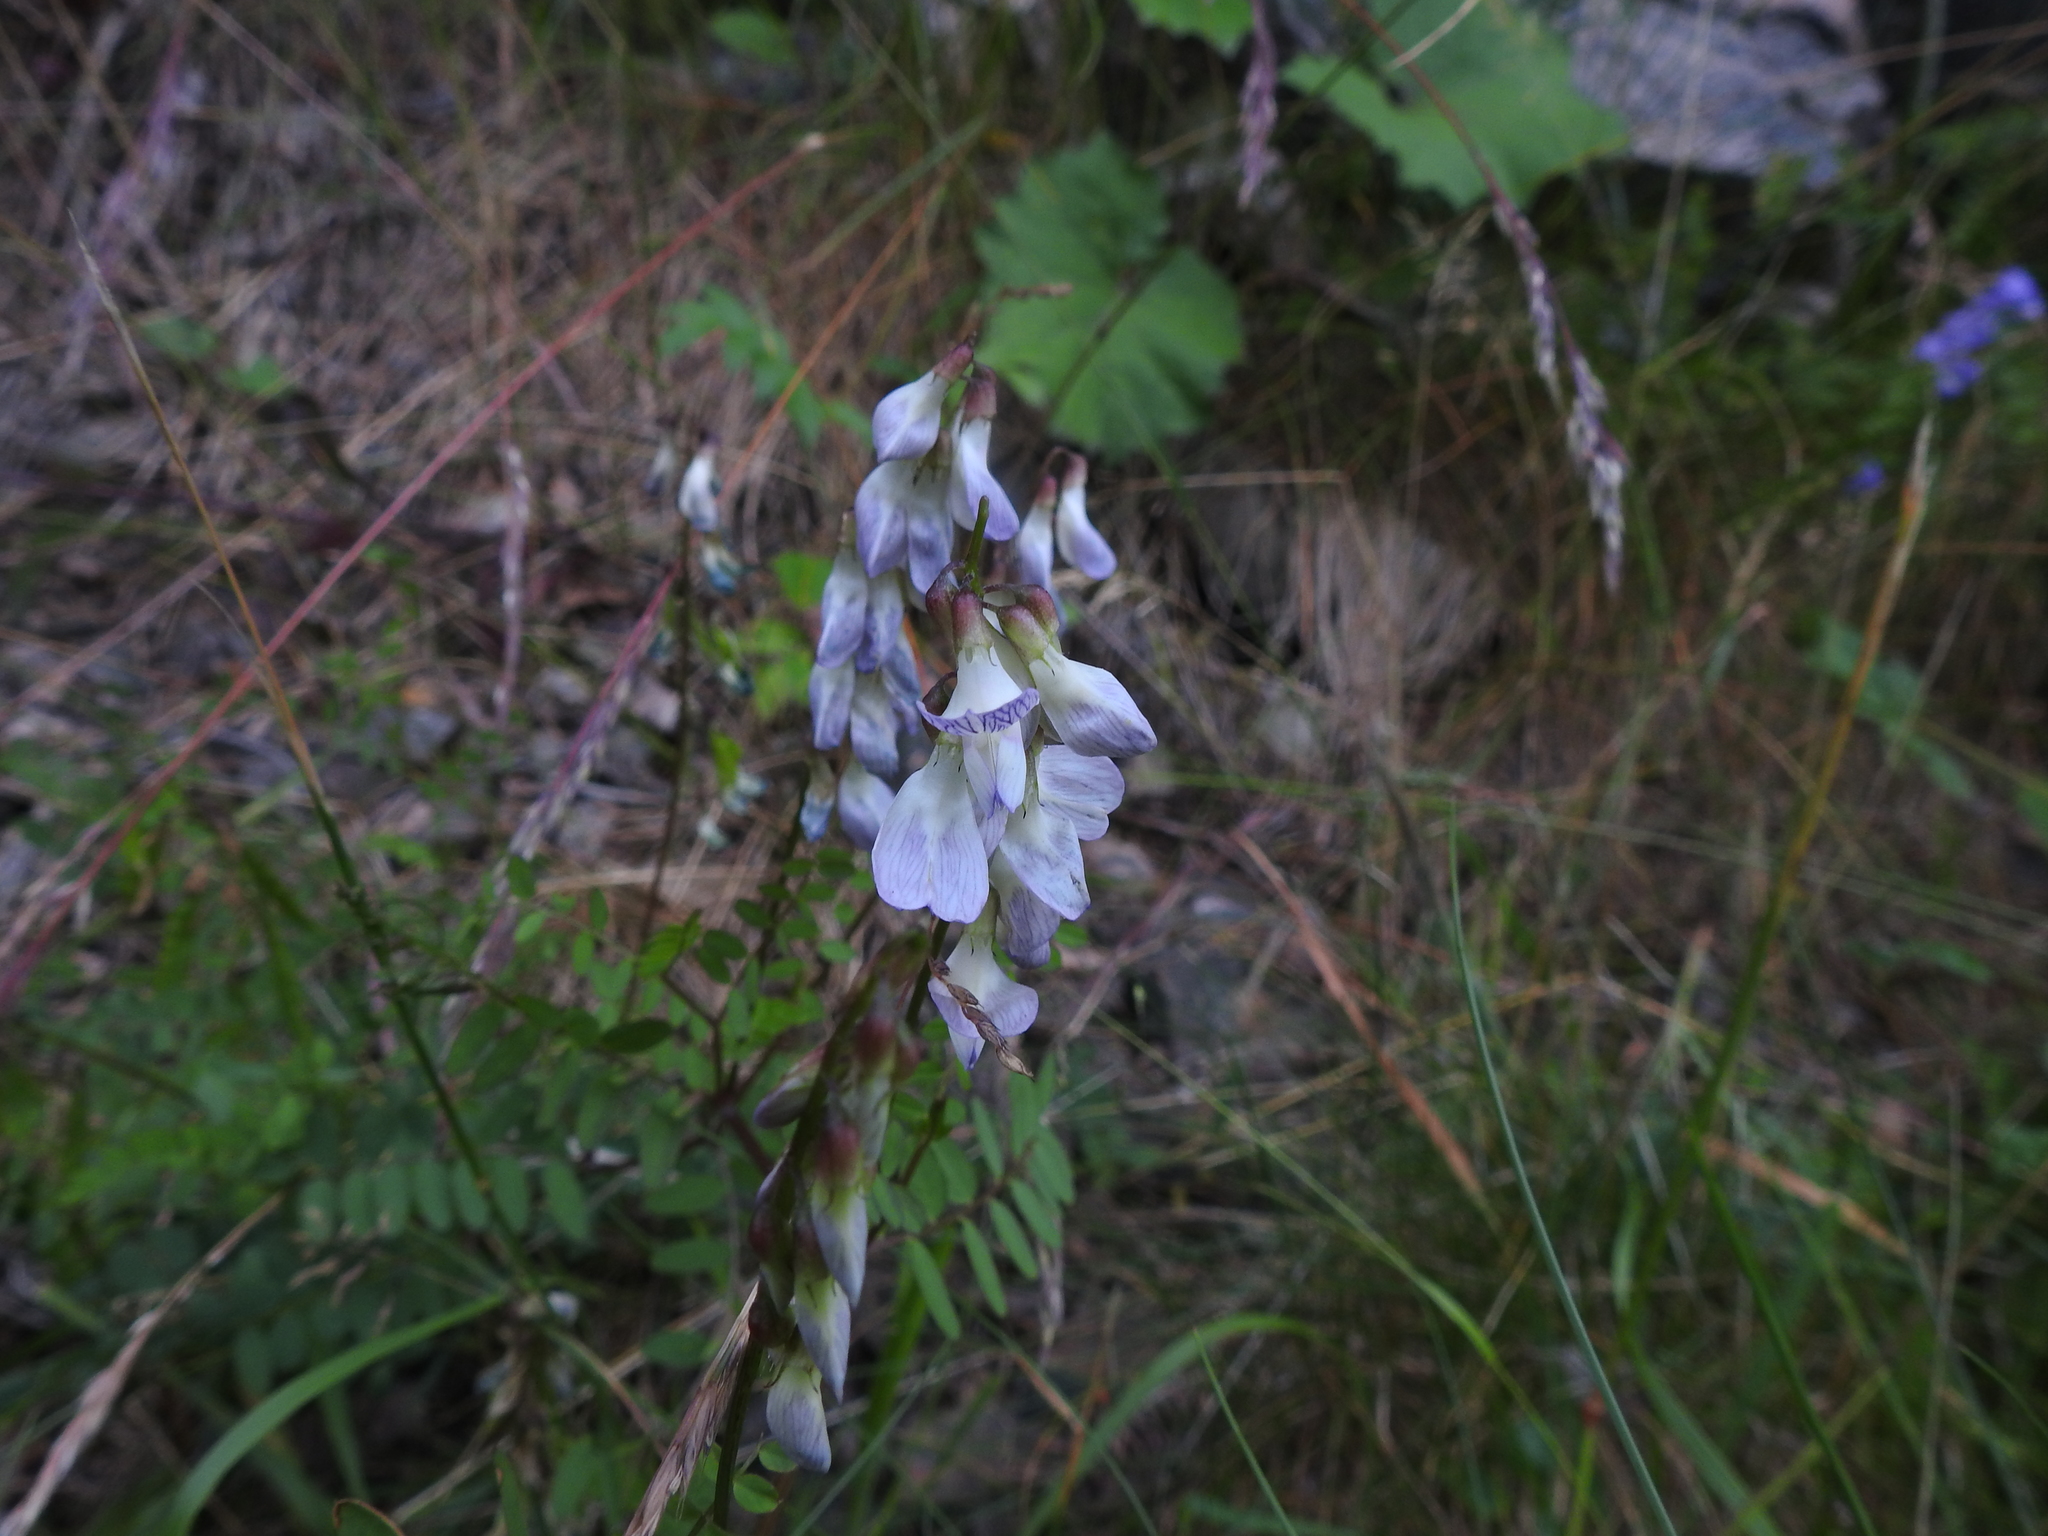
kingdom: Plantae
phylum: Tracheophyta
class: Magnoliopsida
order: Fabales
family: Fabaceae
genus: Vicia
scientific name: Vicia sylvatica
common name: Wood vetch
